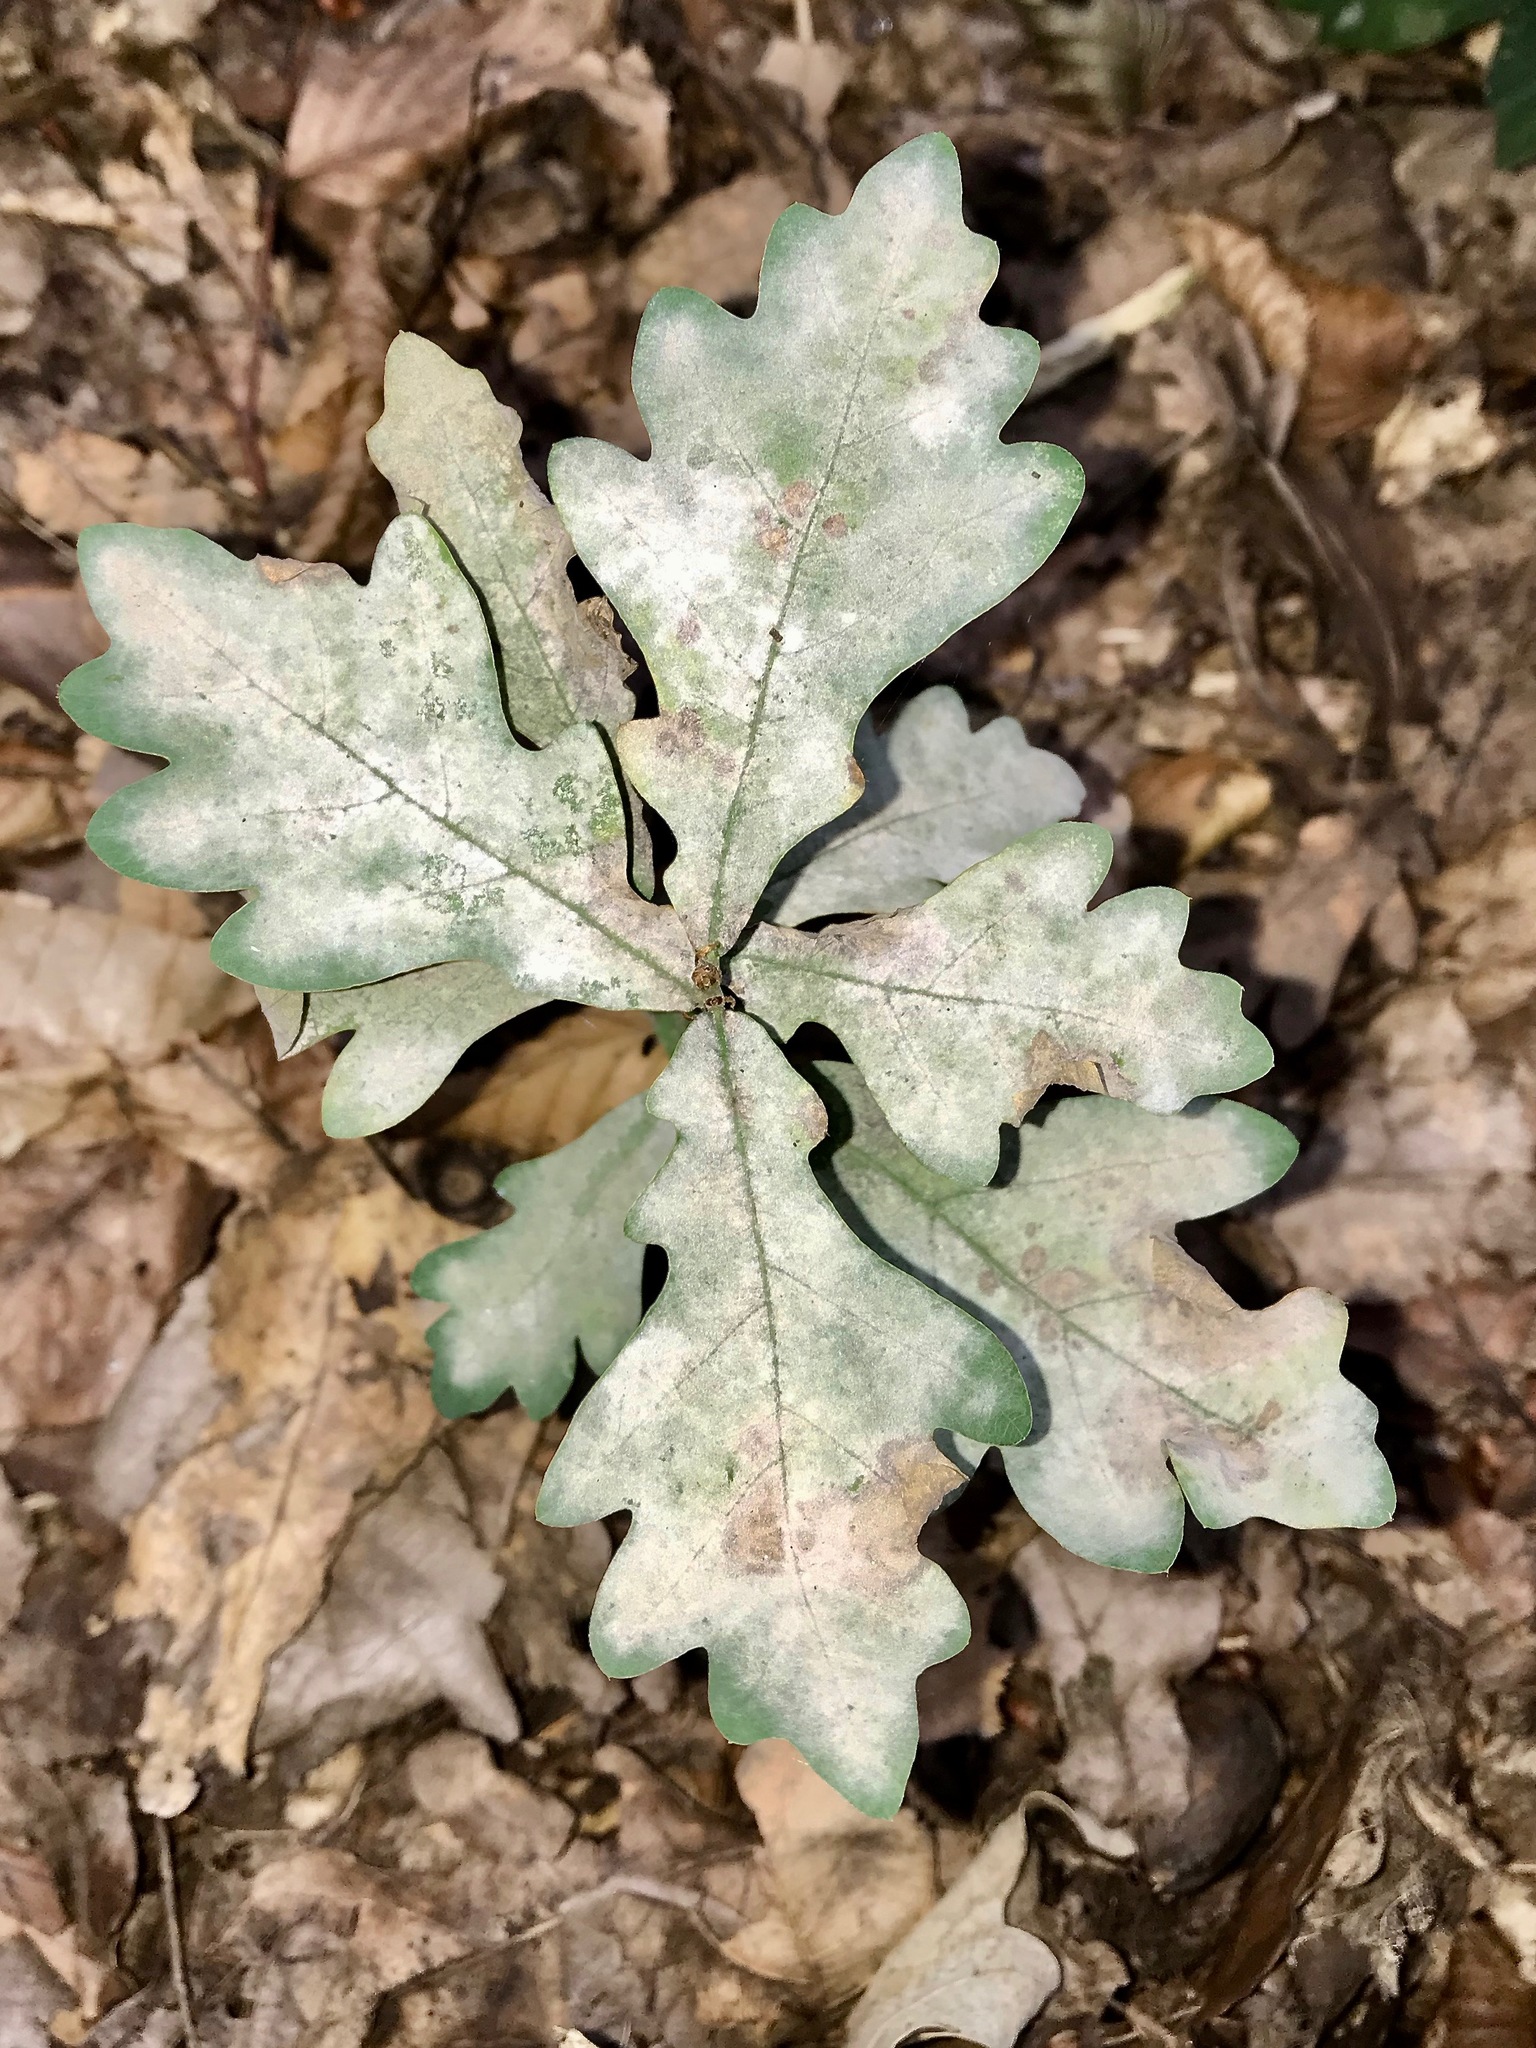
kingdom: Fungi
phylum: Ascomycota
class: Leotiomycetes
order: Helotiales
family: Erysiphaceae
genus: Erysiphe
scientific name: Erysiphe
